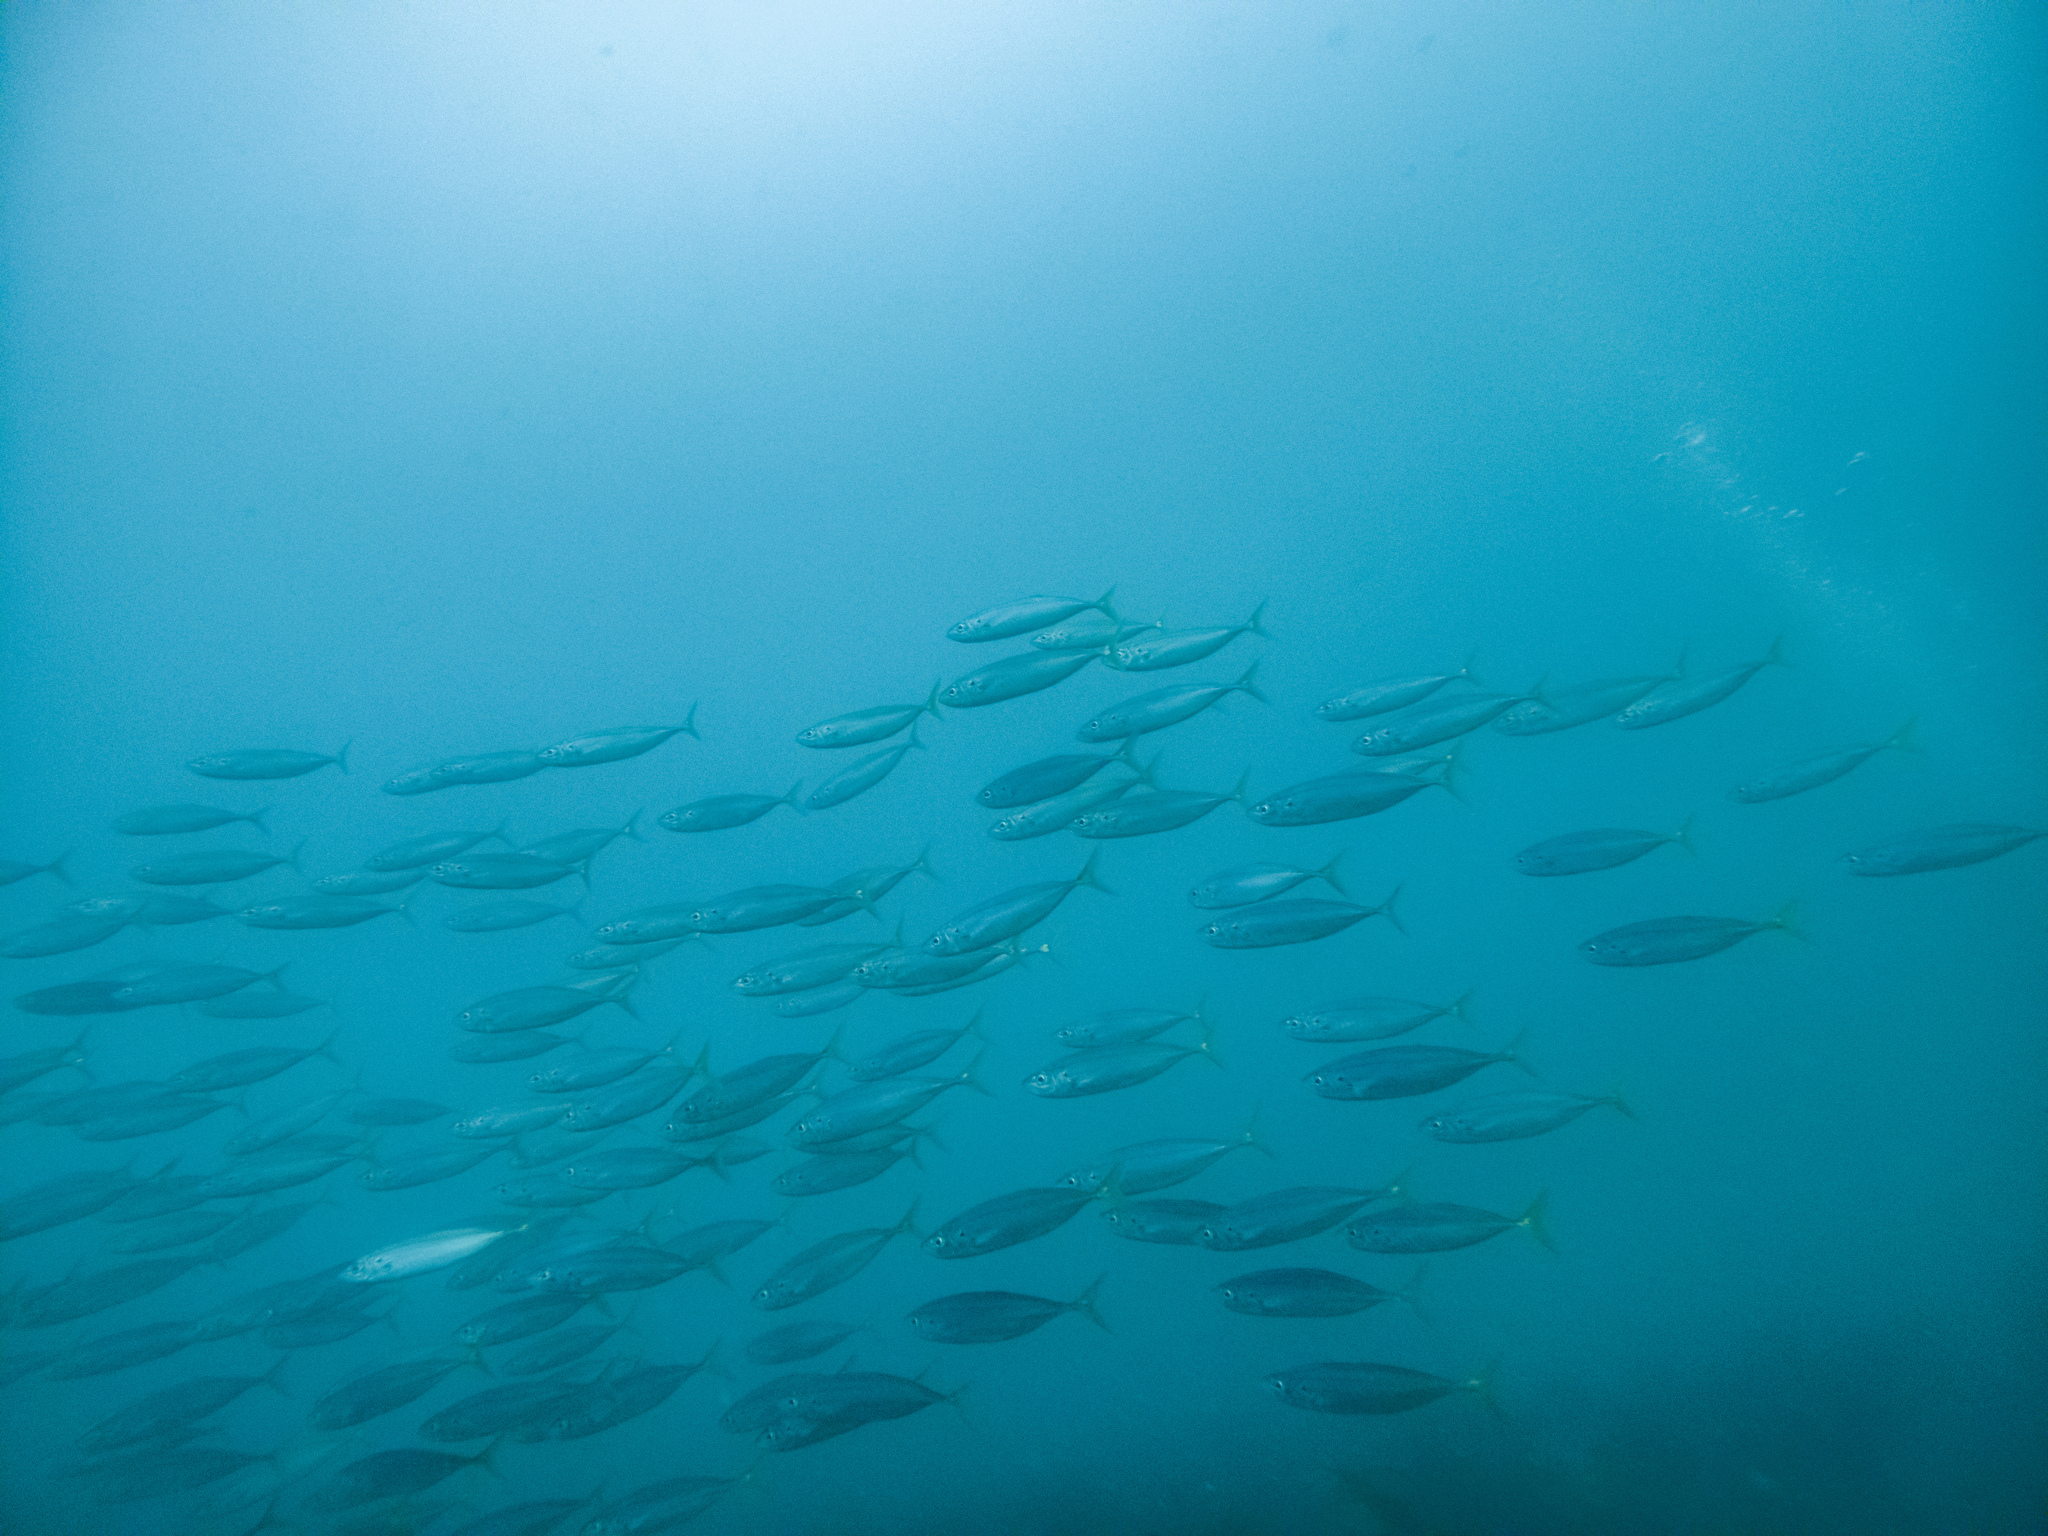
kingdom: Animalia
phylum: Chordata
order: Perciformes
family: Carangidae
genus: Decapterus
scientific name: Decapterus koheru
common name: Koheru
